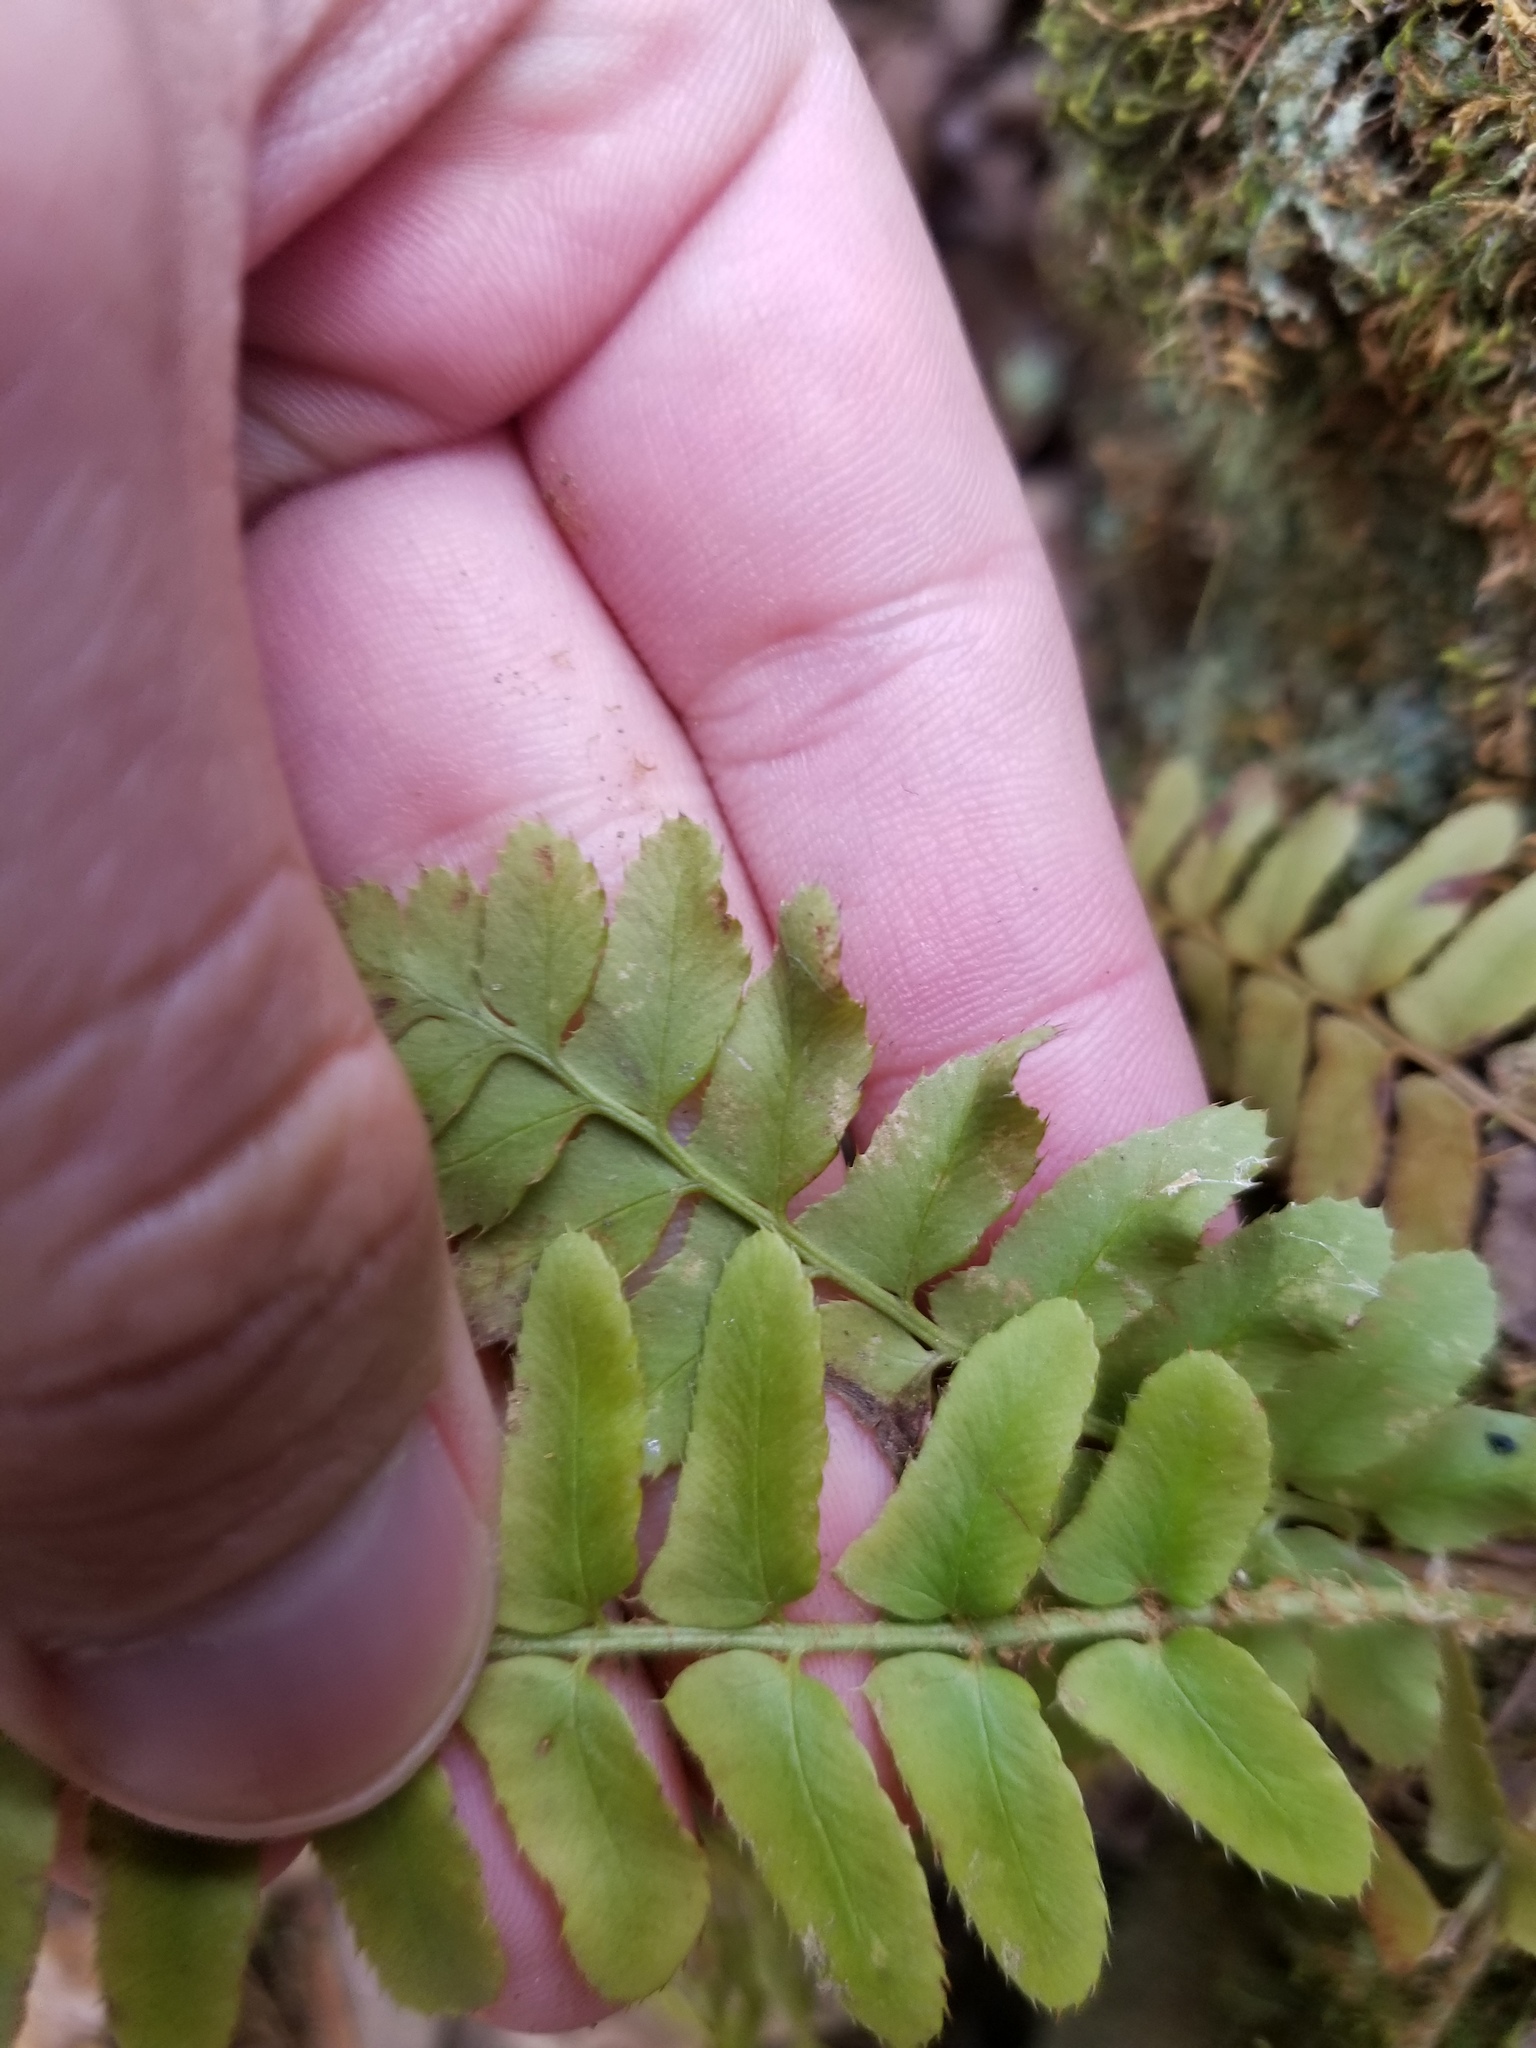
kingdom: Plantae
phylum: Tracheophyta
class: Polypodiopsida
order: Polypodiales
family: Dryopteridaceae
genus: Polystichum
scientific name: Polystichum acrostichoides
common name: Christmas fern
